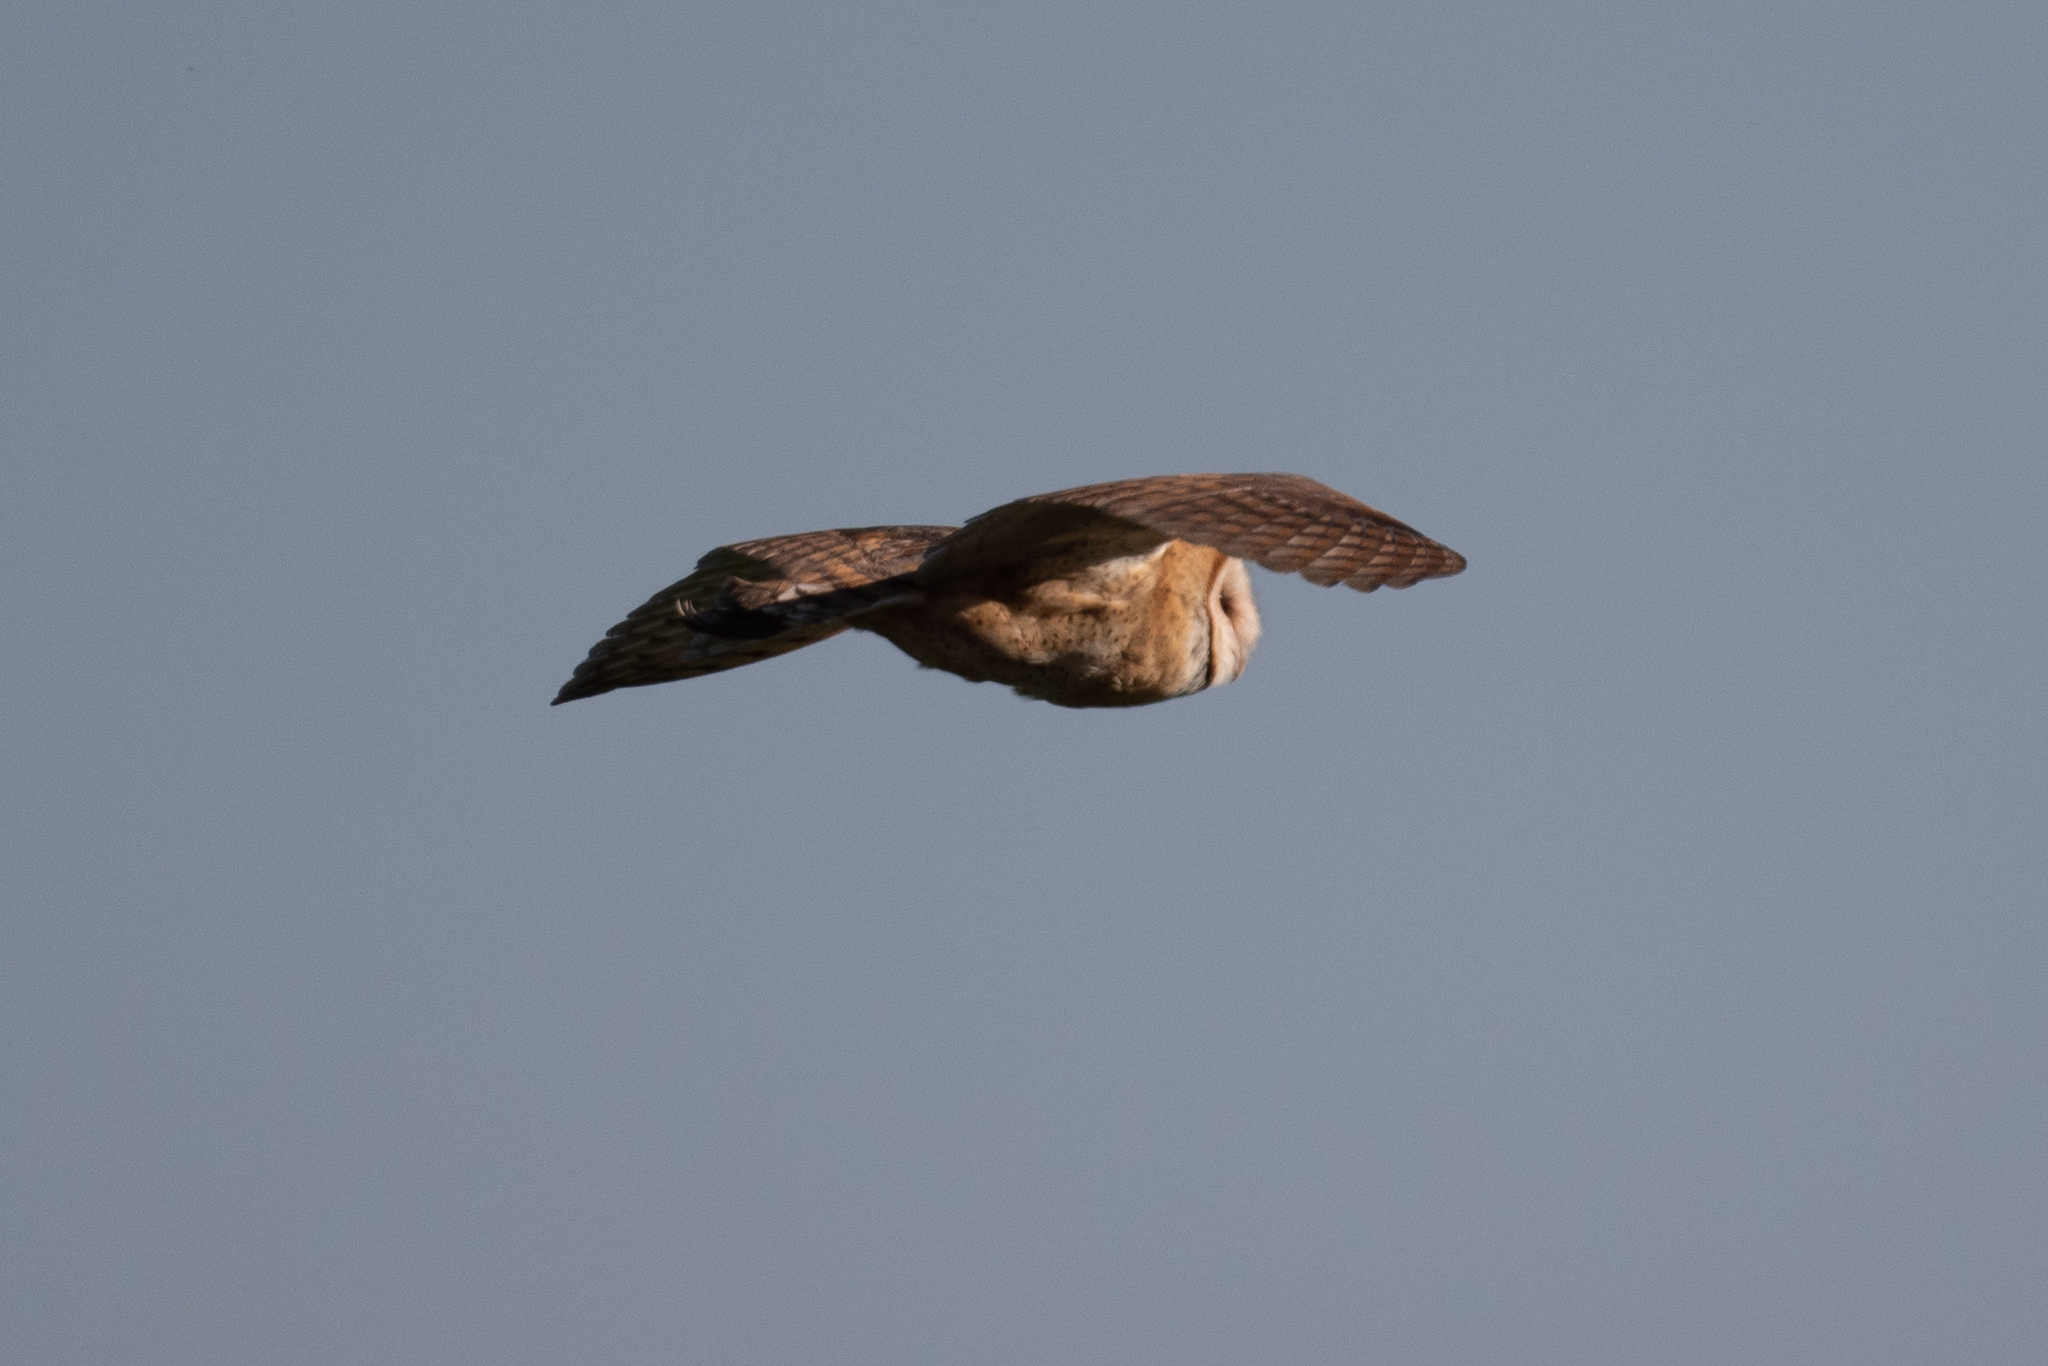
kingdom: Animalia
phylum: Chordata
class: Aves
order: Strigiformes
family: Tytonidae
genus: Tyto
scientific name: Tyto alba
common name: Barn owl
